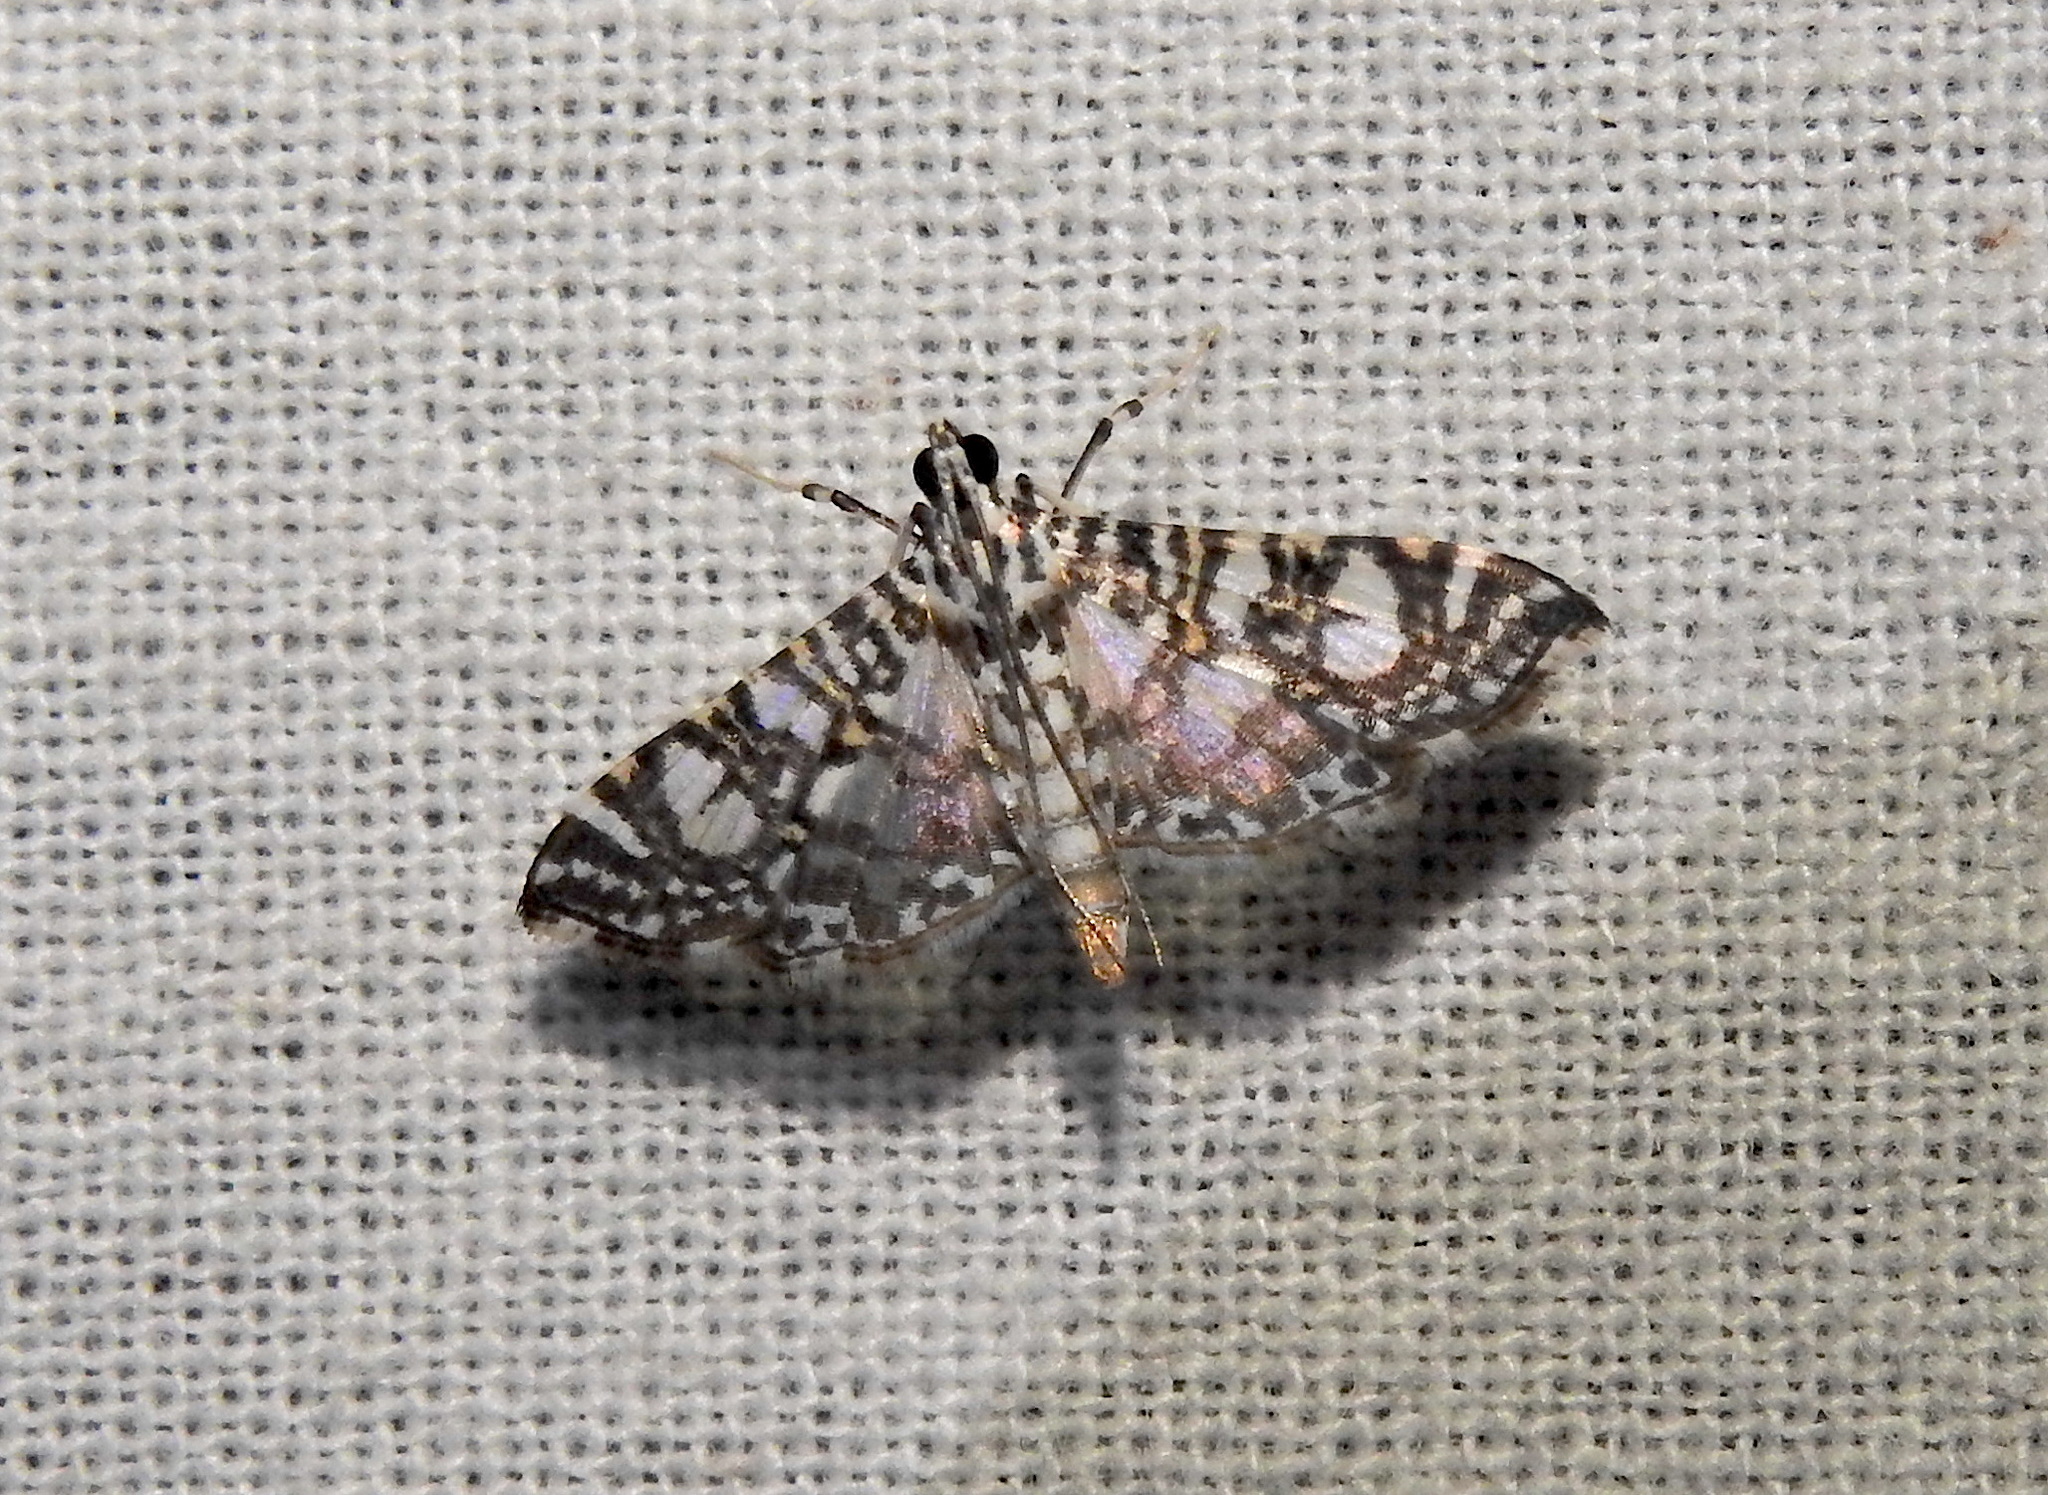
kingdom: Animalia
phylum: Arthropoda
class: Insecta
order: Lepidoptera
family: Crambidae
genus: Glyphodes
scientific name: Glyphodes onychinalis
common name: Swan plant moth
